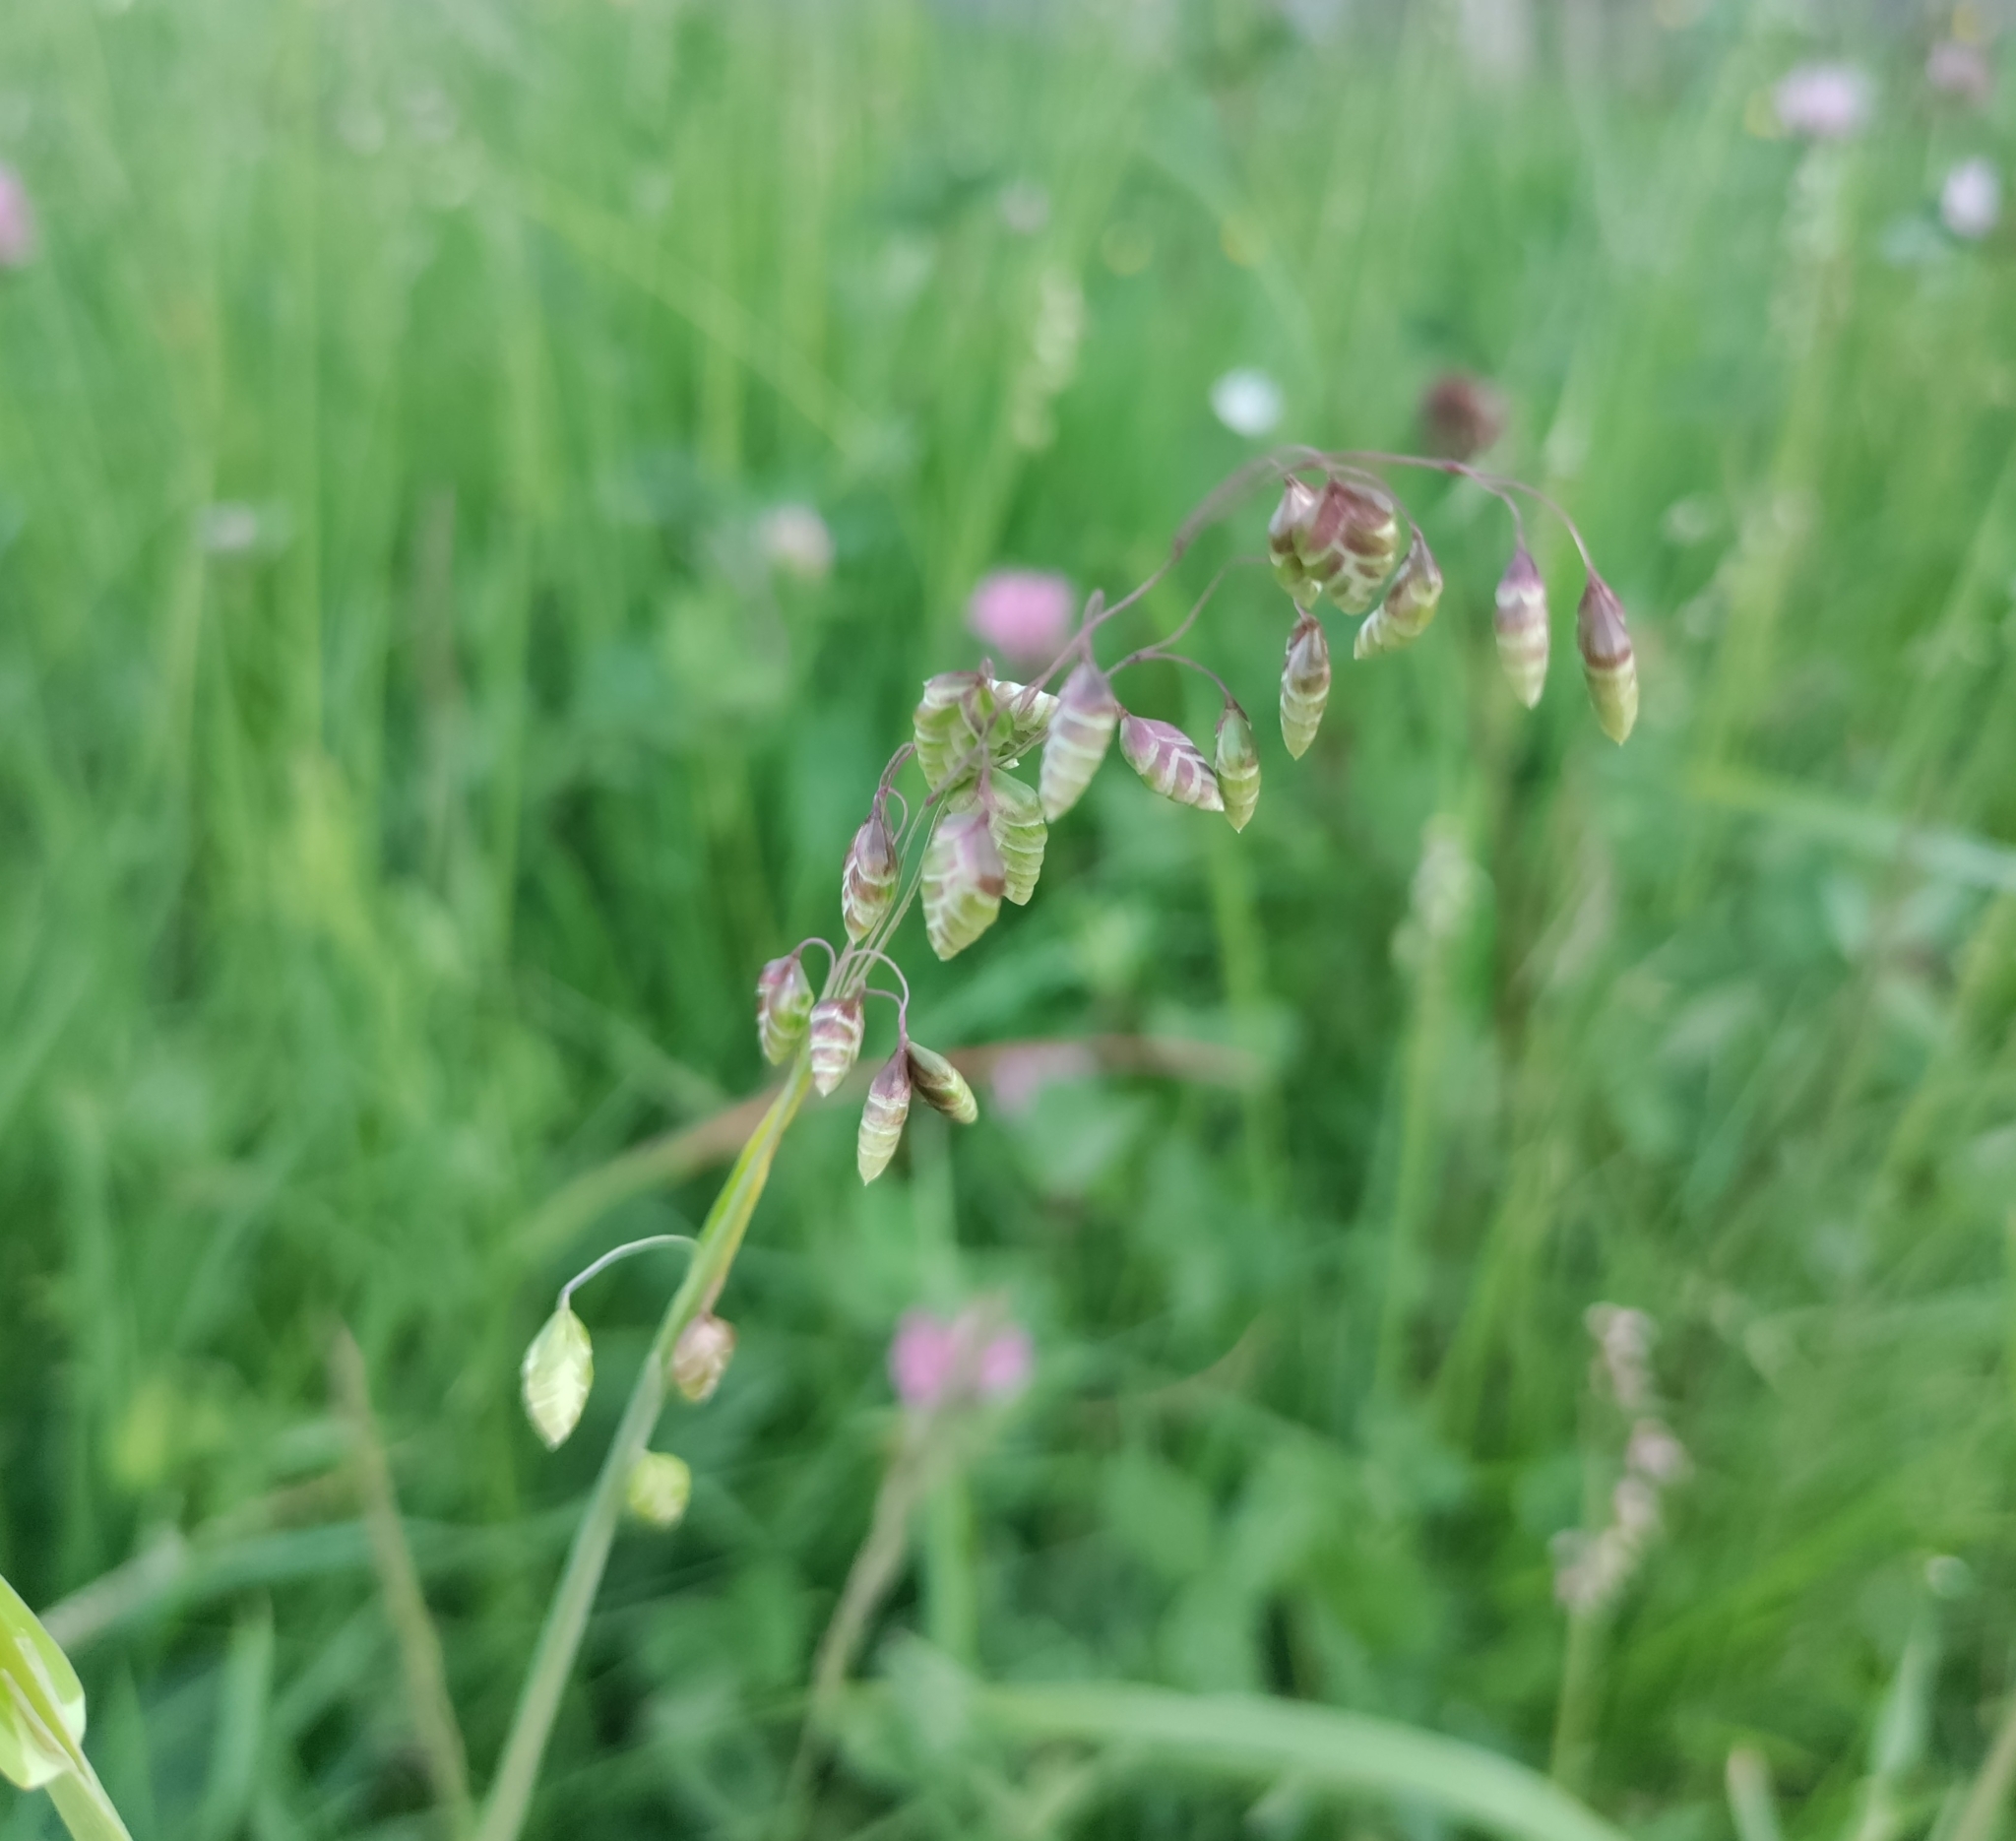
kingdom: Plantae
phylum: Tracheophyta
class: Liliopsida
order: Poales
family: Poaceae
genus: Briza
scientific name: Briza media
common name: Quaking grass
